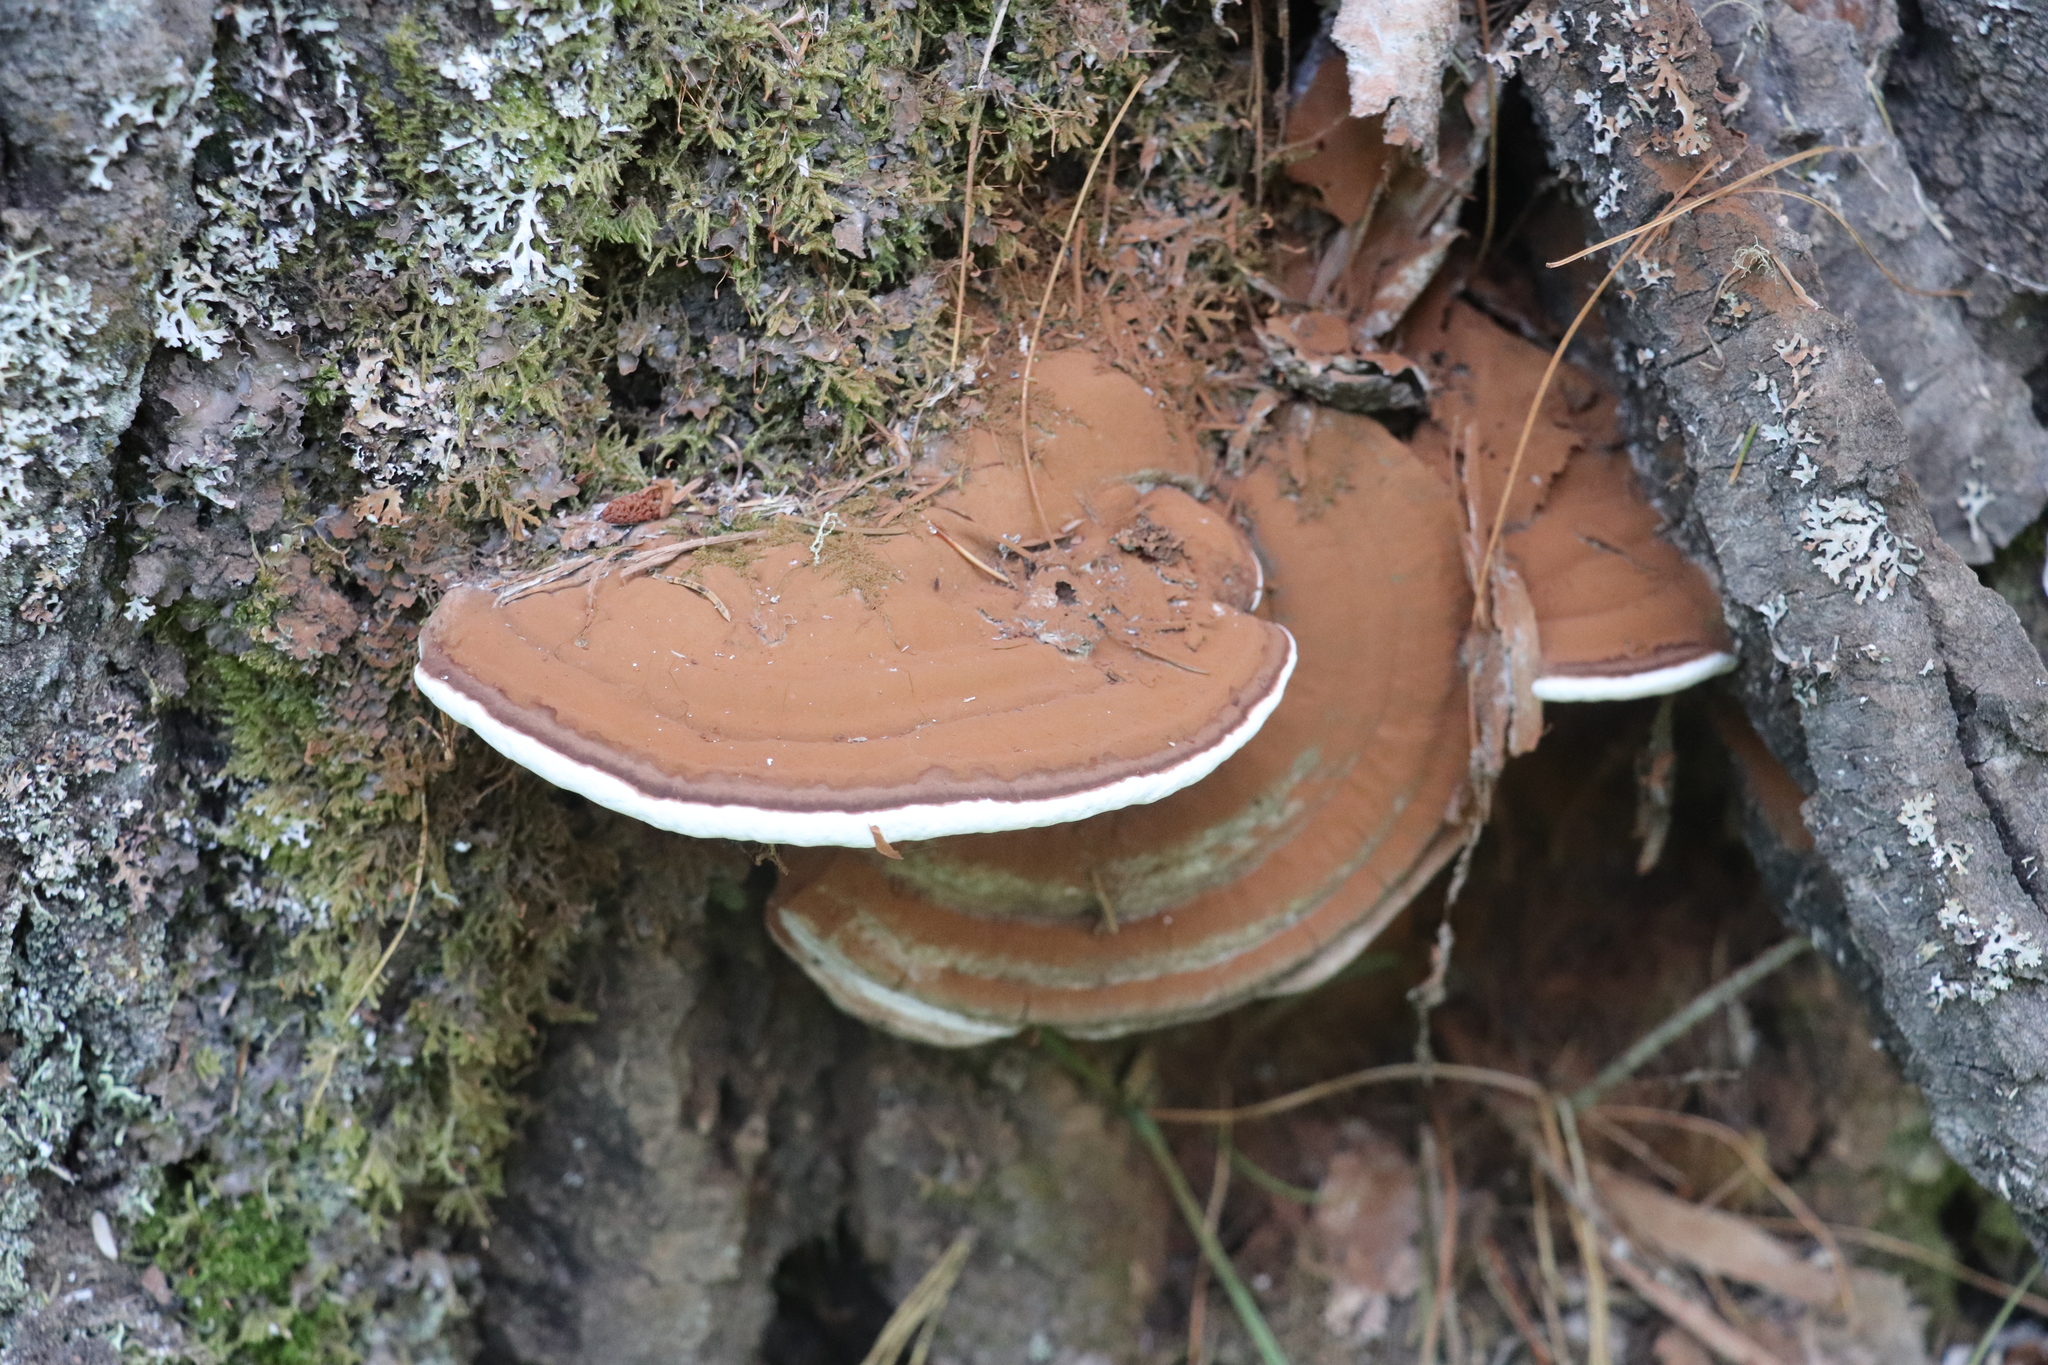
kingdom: Fungi
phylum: Basidiomycota
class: Agaricomycetes
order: Polyporales
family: Polyporaceae
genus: Ganoderma
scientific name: Ganoderma applanatum
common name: Artist's bracket
